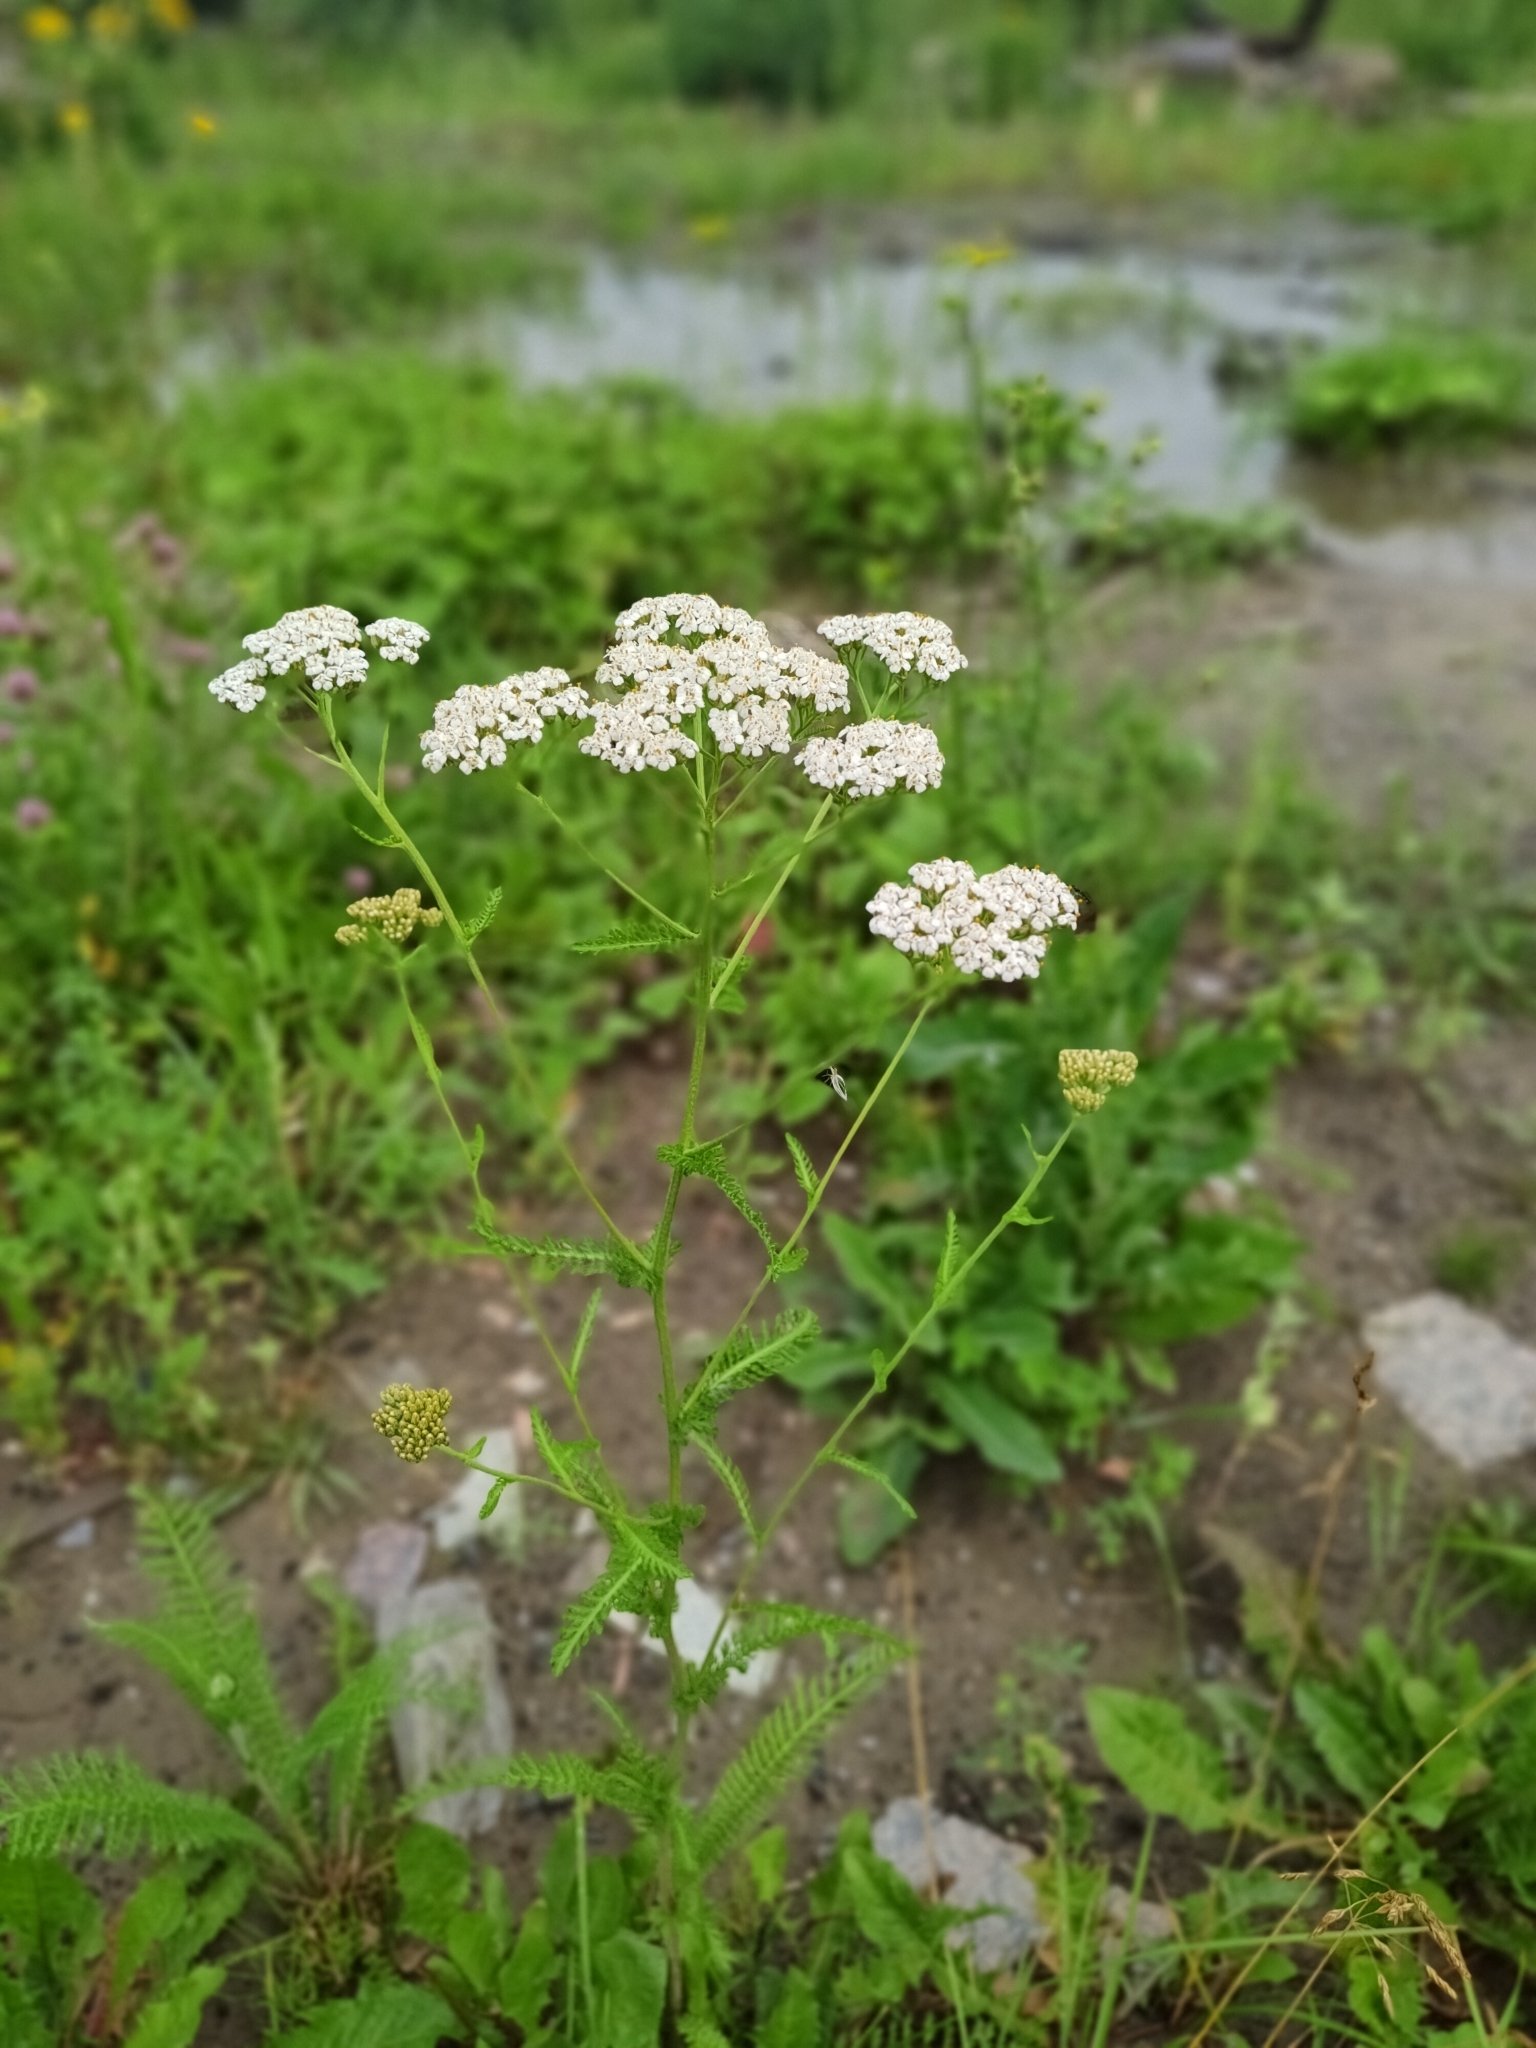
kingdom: Plantae
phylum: Tracheophyta
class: Magnoliopsida
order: Asterales
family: Asteraceae
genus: Achillea
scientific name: Achillea millefolium
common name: Yarrow
